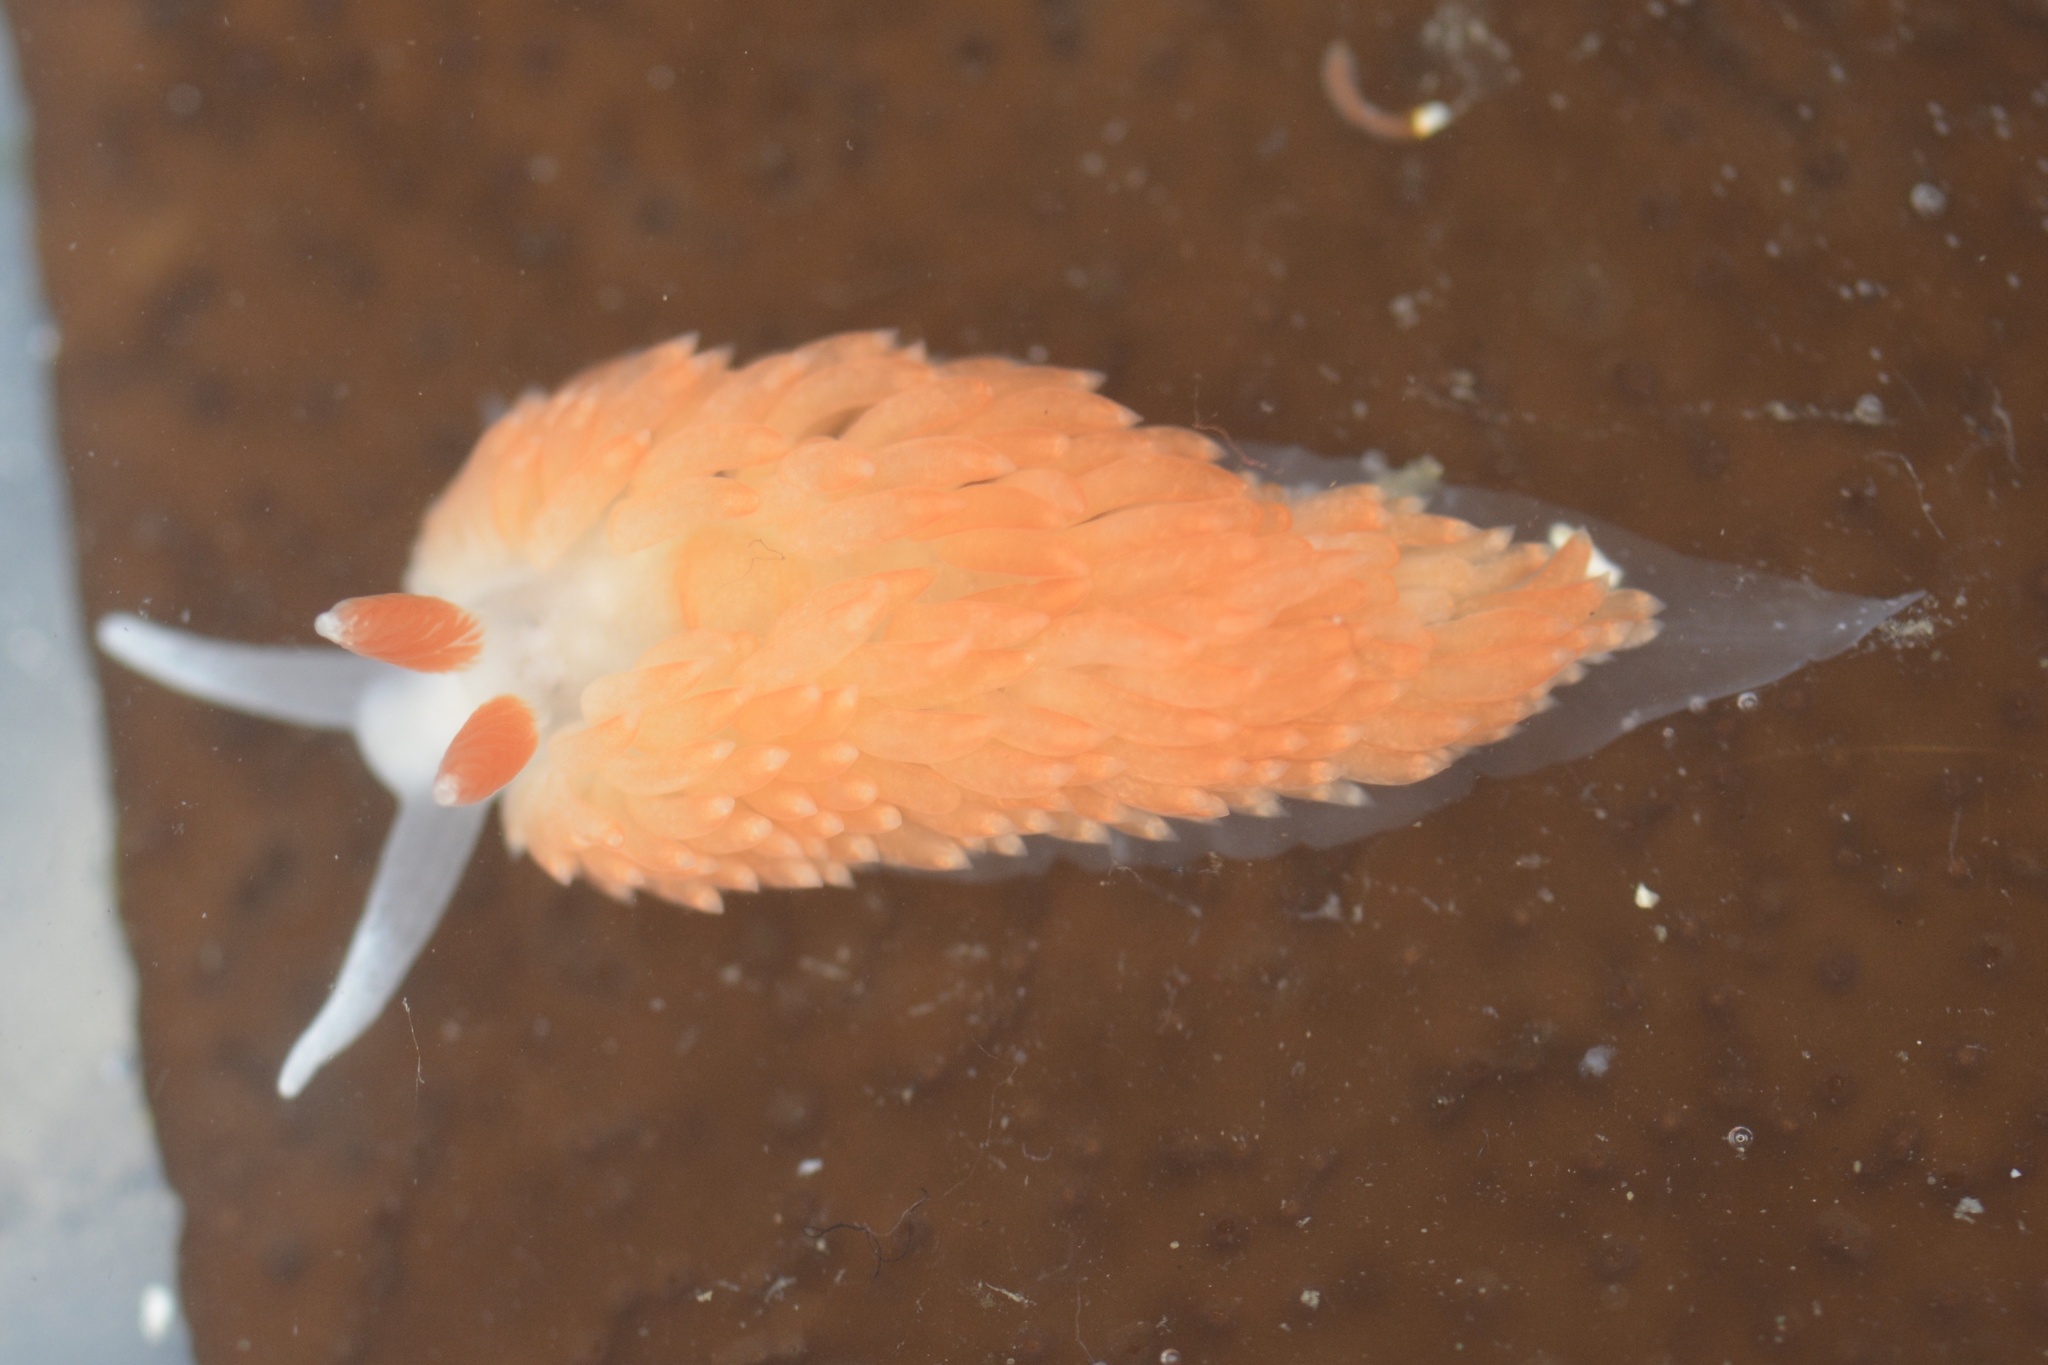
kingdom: Animalia
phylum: Mollusca
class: Gastropoda
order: Nudibranchia
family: Aeolidiidae
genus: Anteaeolidiella
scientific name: Anteaeolidiella oliviae
